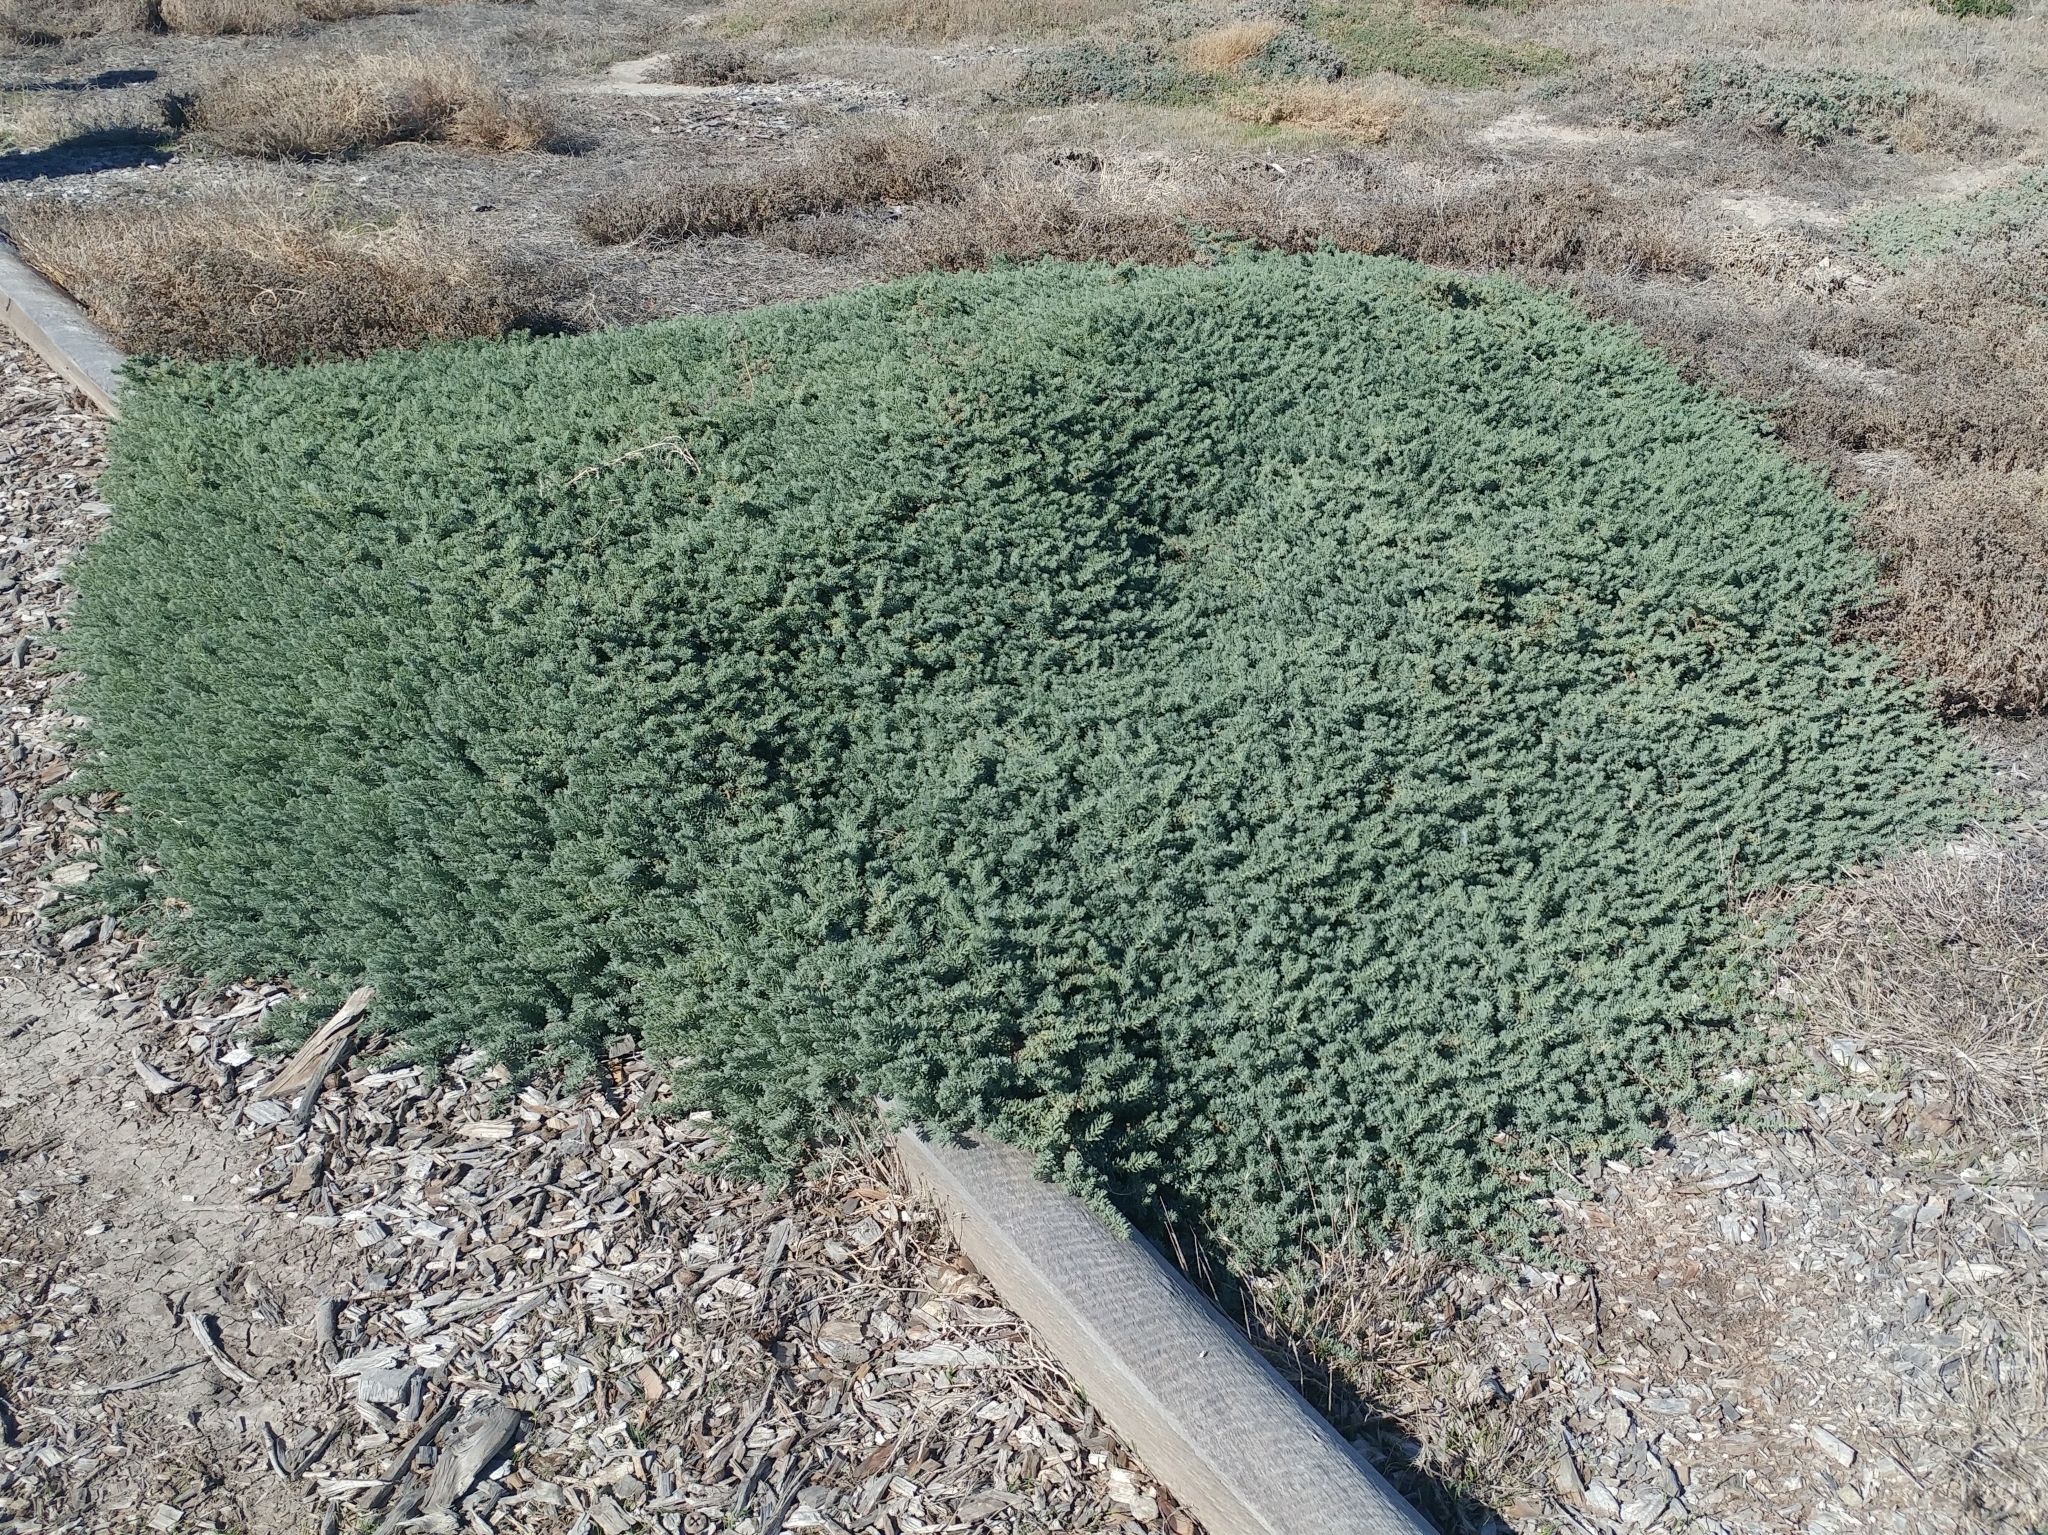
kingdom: Plantae
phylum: Tracheophyta
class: Magnoliopsida
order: Caryophyllales
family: Amaranthaceae
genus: Suaeda
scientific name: Suaeda taxifolia
